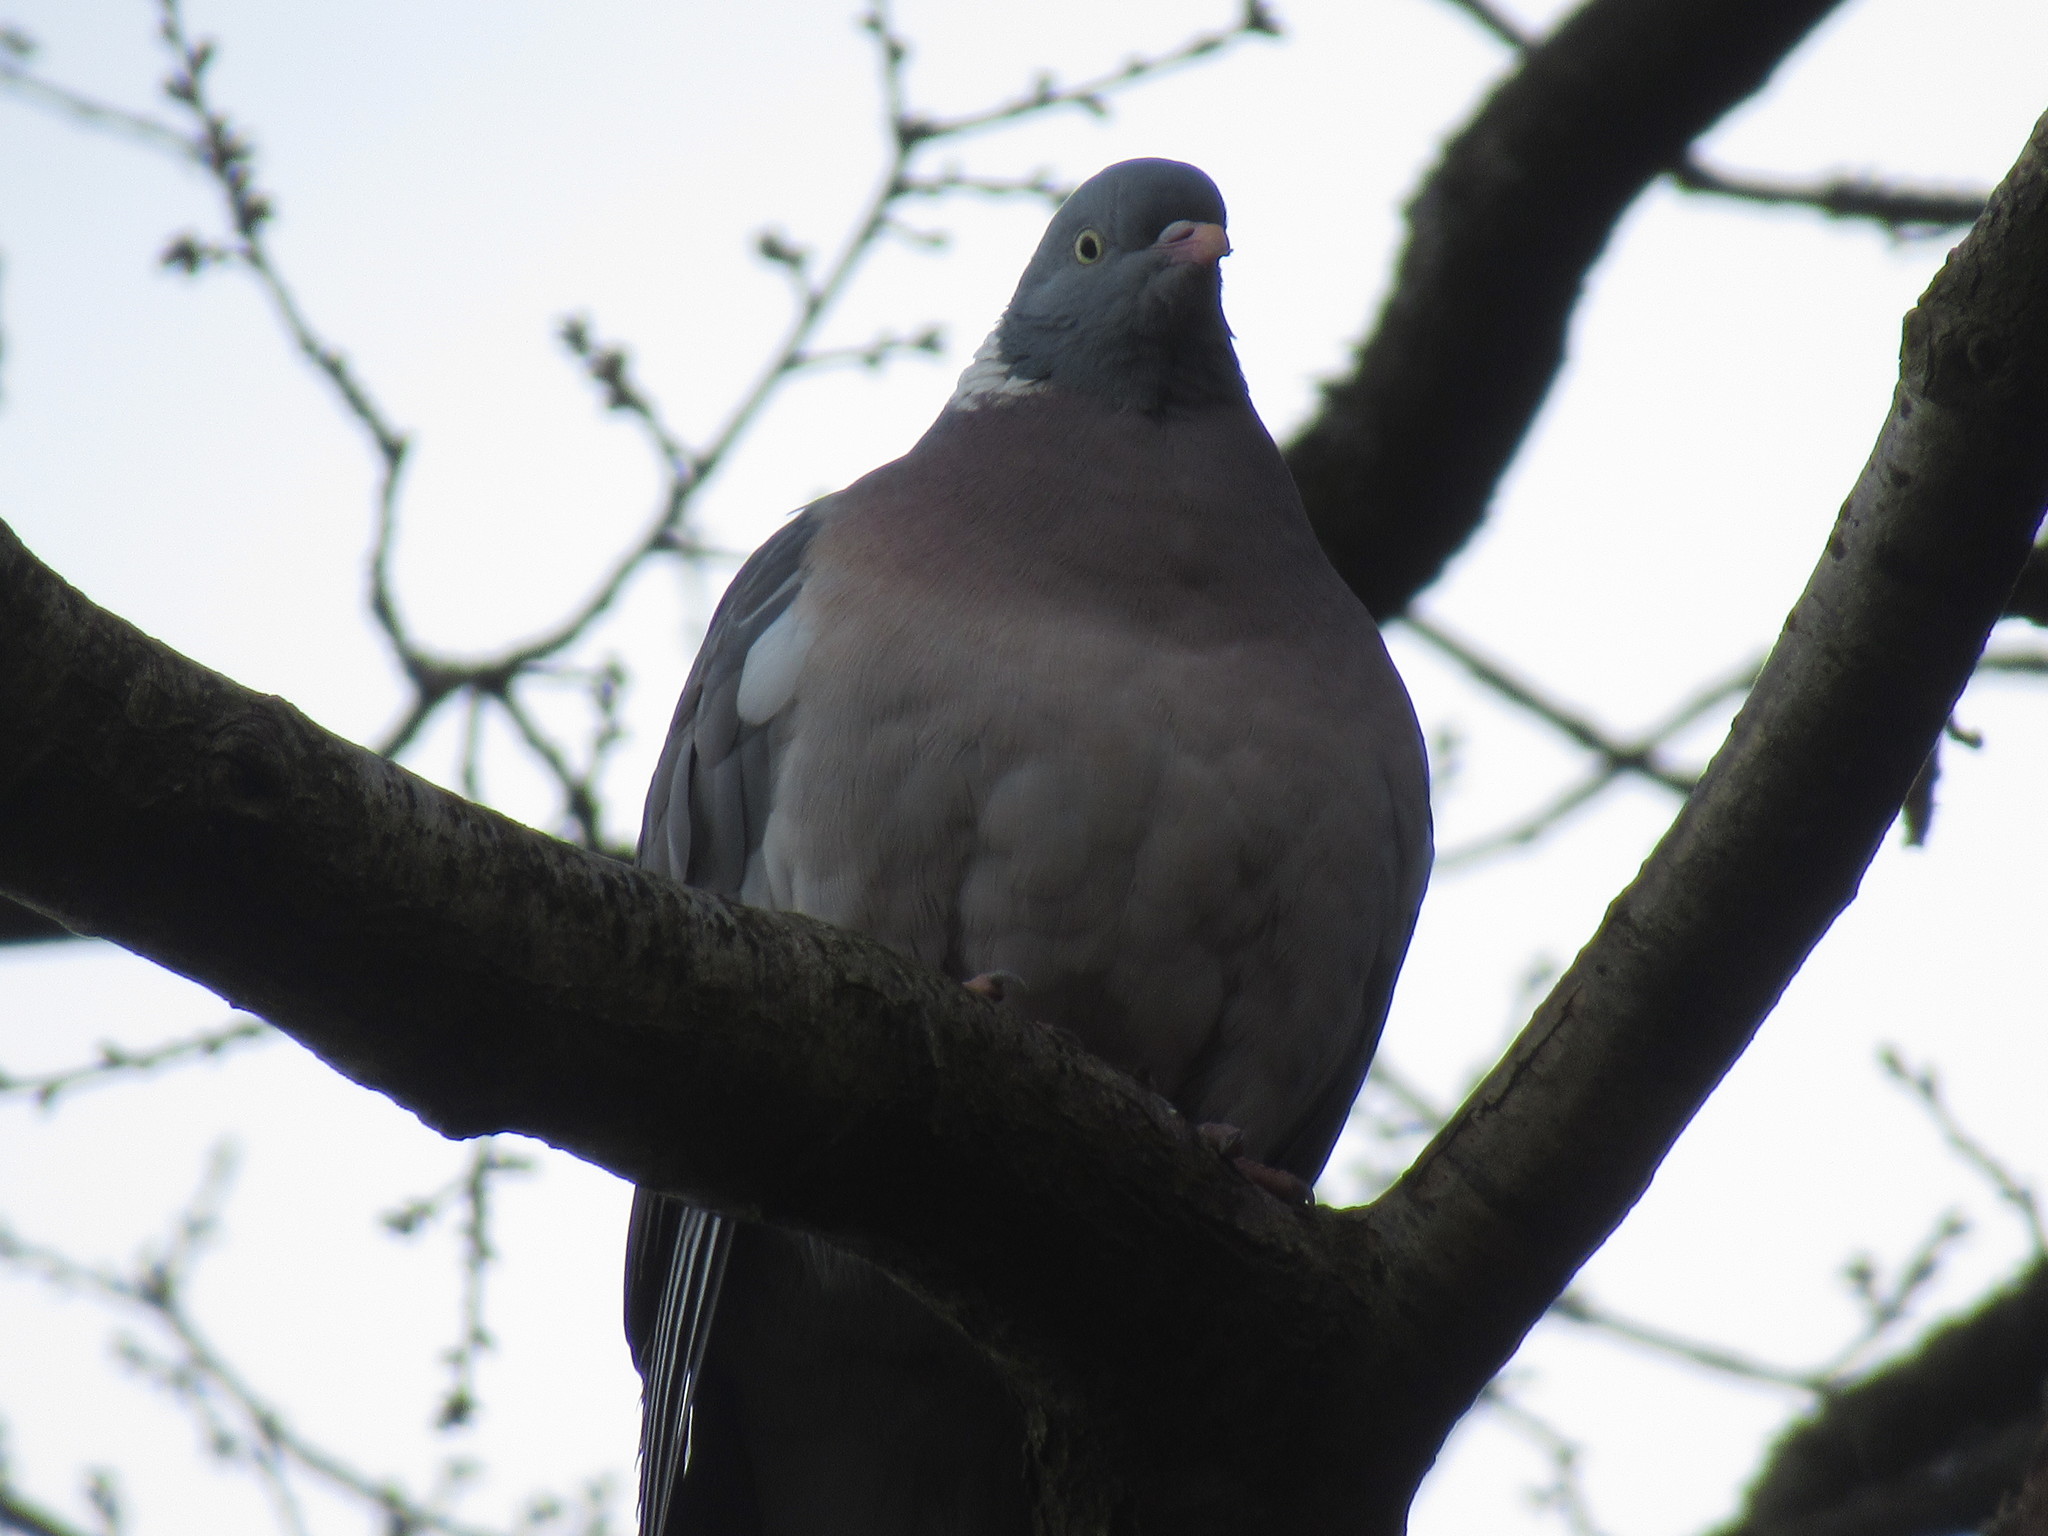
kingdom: Animalia
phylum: Chordata
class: Aves
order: Columbiformes
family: Columbidae
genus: Columba
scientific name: Columba palumbus
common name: Common wood pigeon
